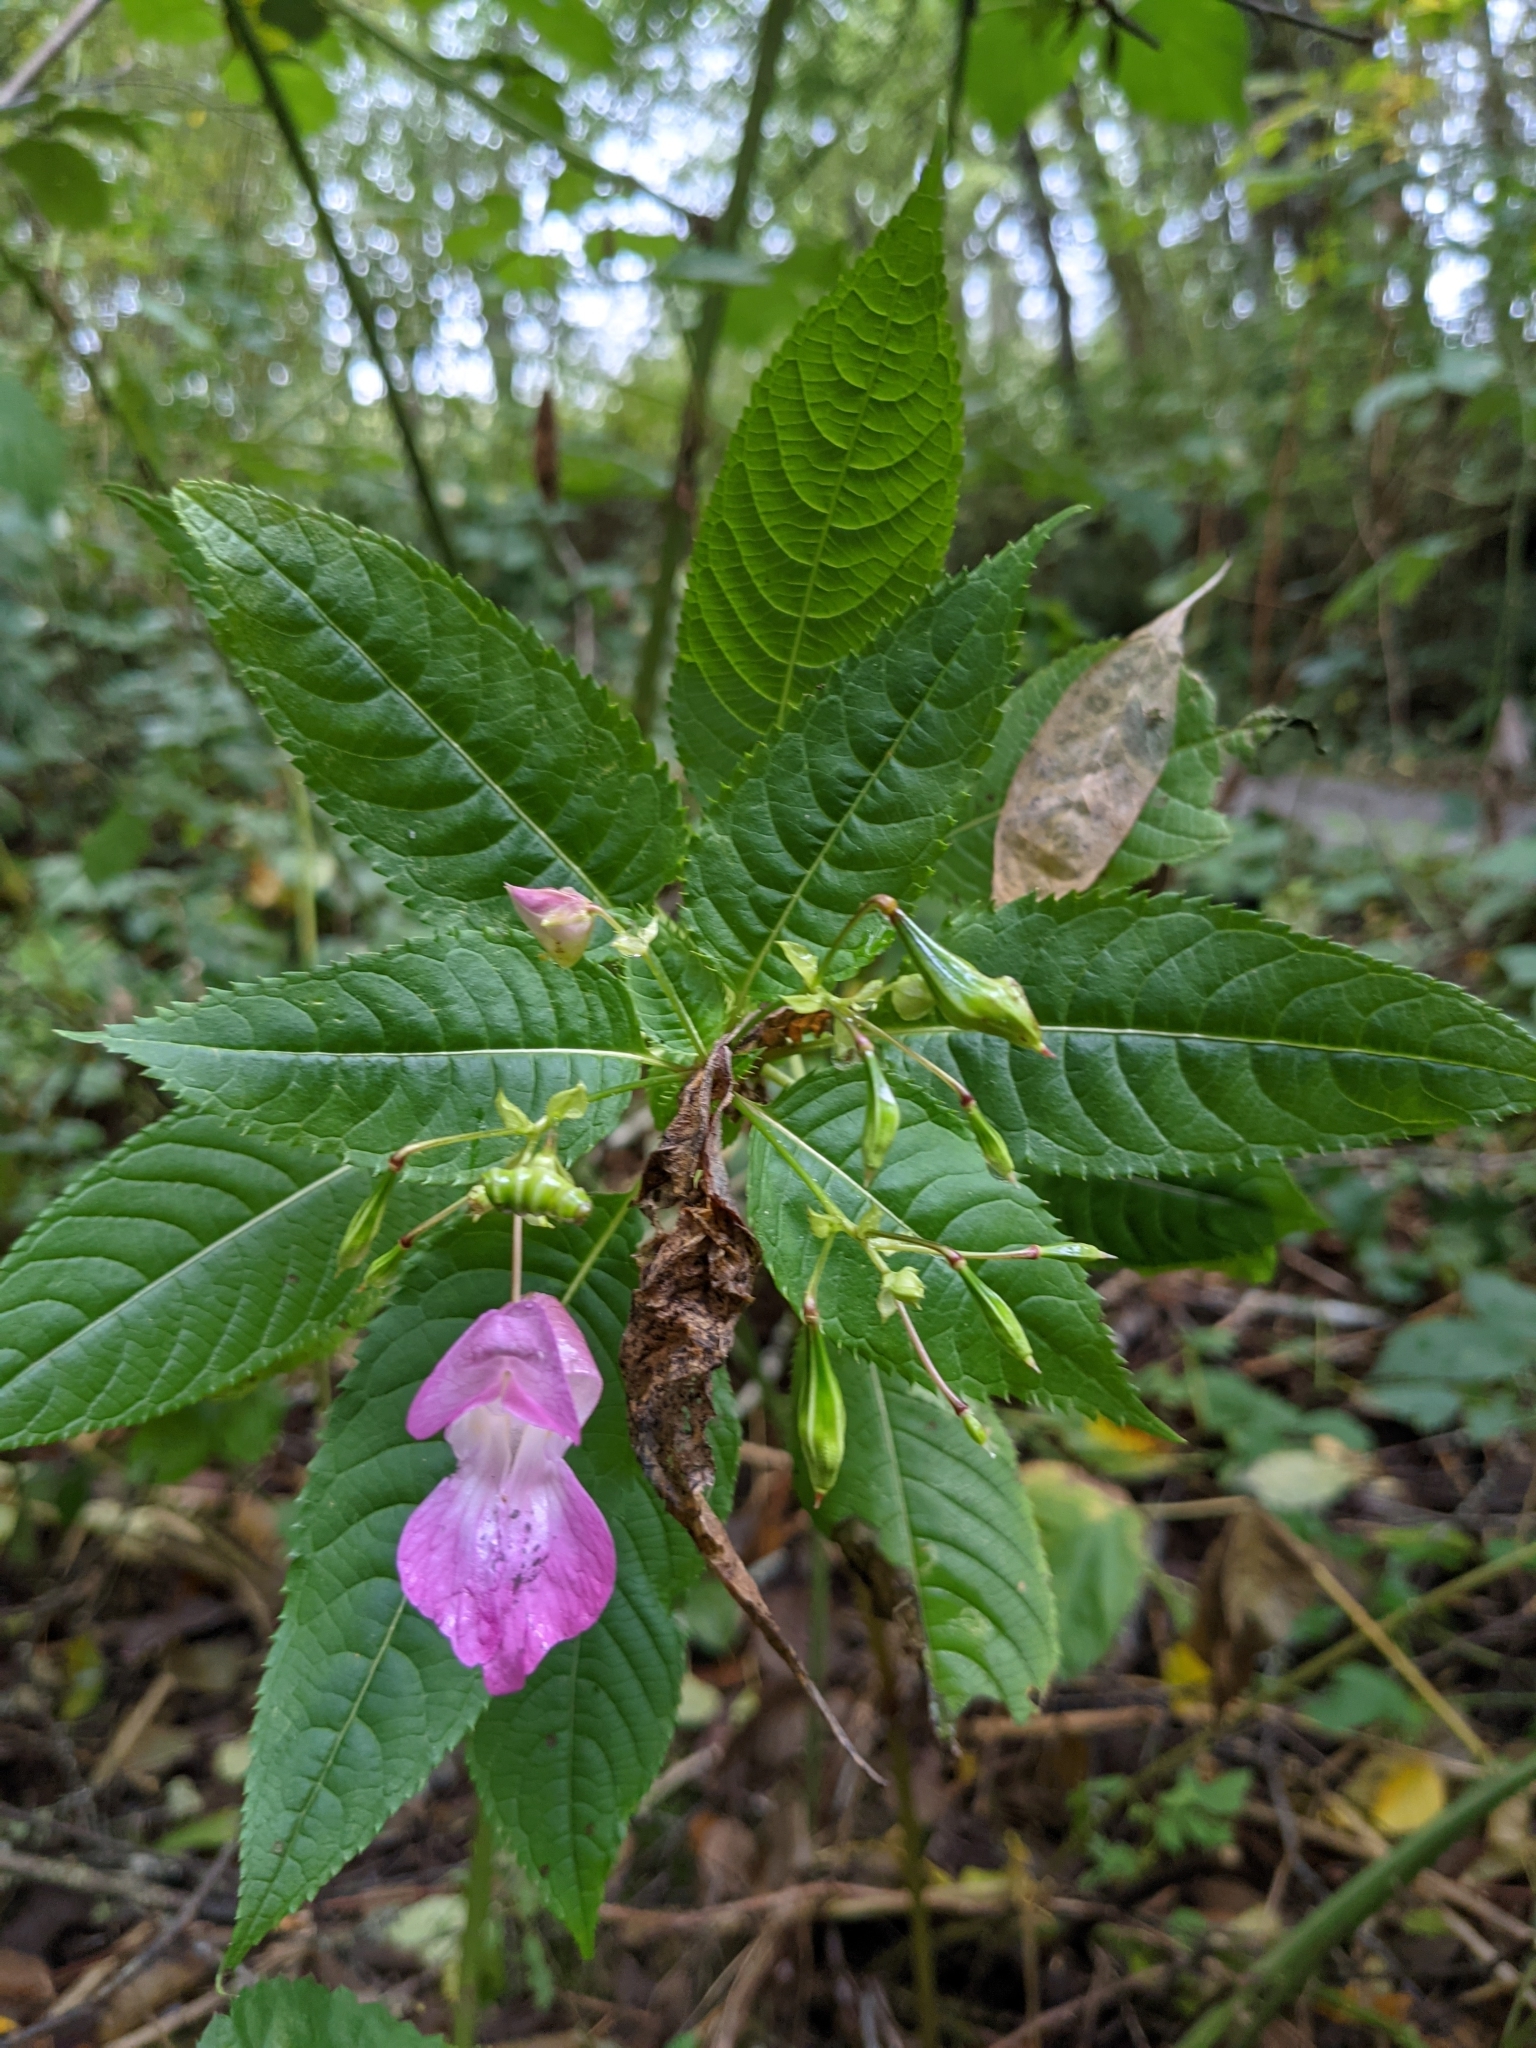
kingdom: Plantae
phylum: Tracheophyta
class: Magnoliopsida
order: Ericales
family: Balsaminaceae
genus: Impatiens
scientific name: Impatiens glandulifera
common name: Himalayan balsam
